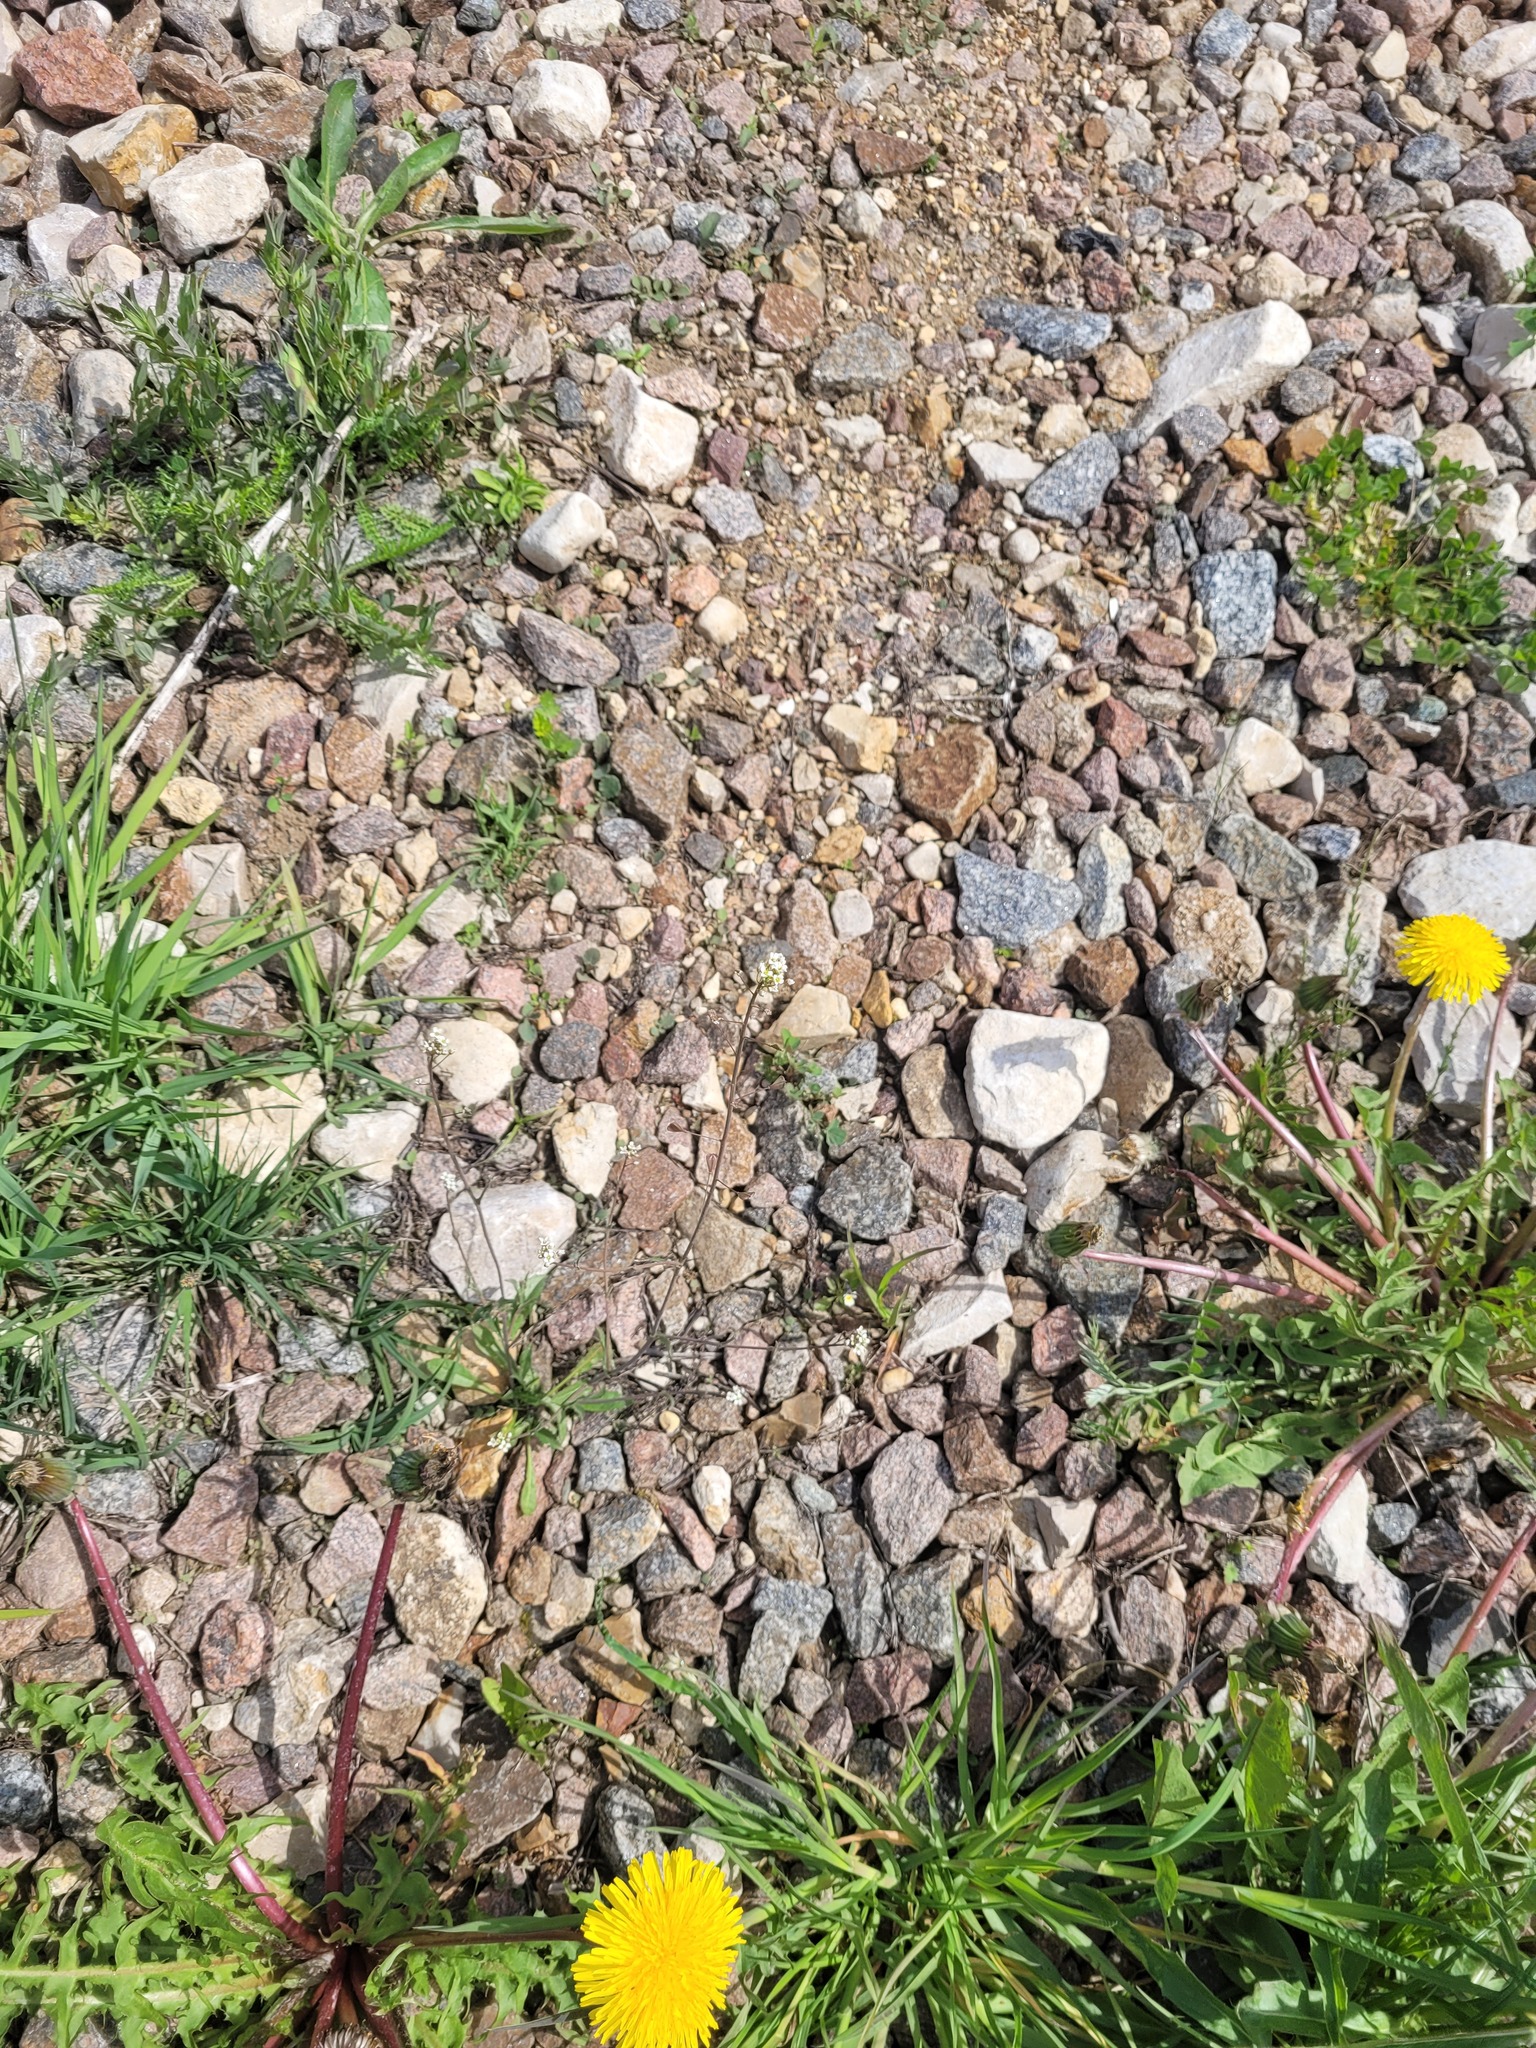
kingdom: Plantae
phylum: Tracheophyta
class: Magnoliopsida
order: Brassicales
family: Brassicaceae
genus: Capsella
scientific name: Capsella bursa-pastoris
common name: Shepherd's purse
